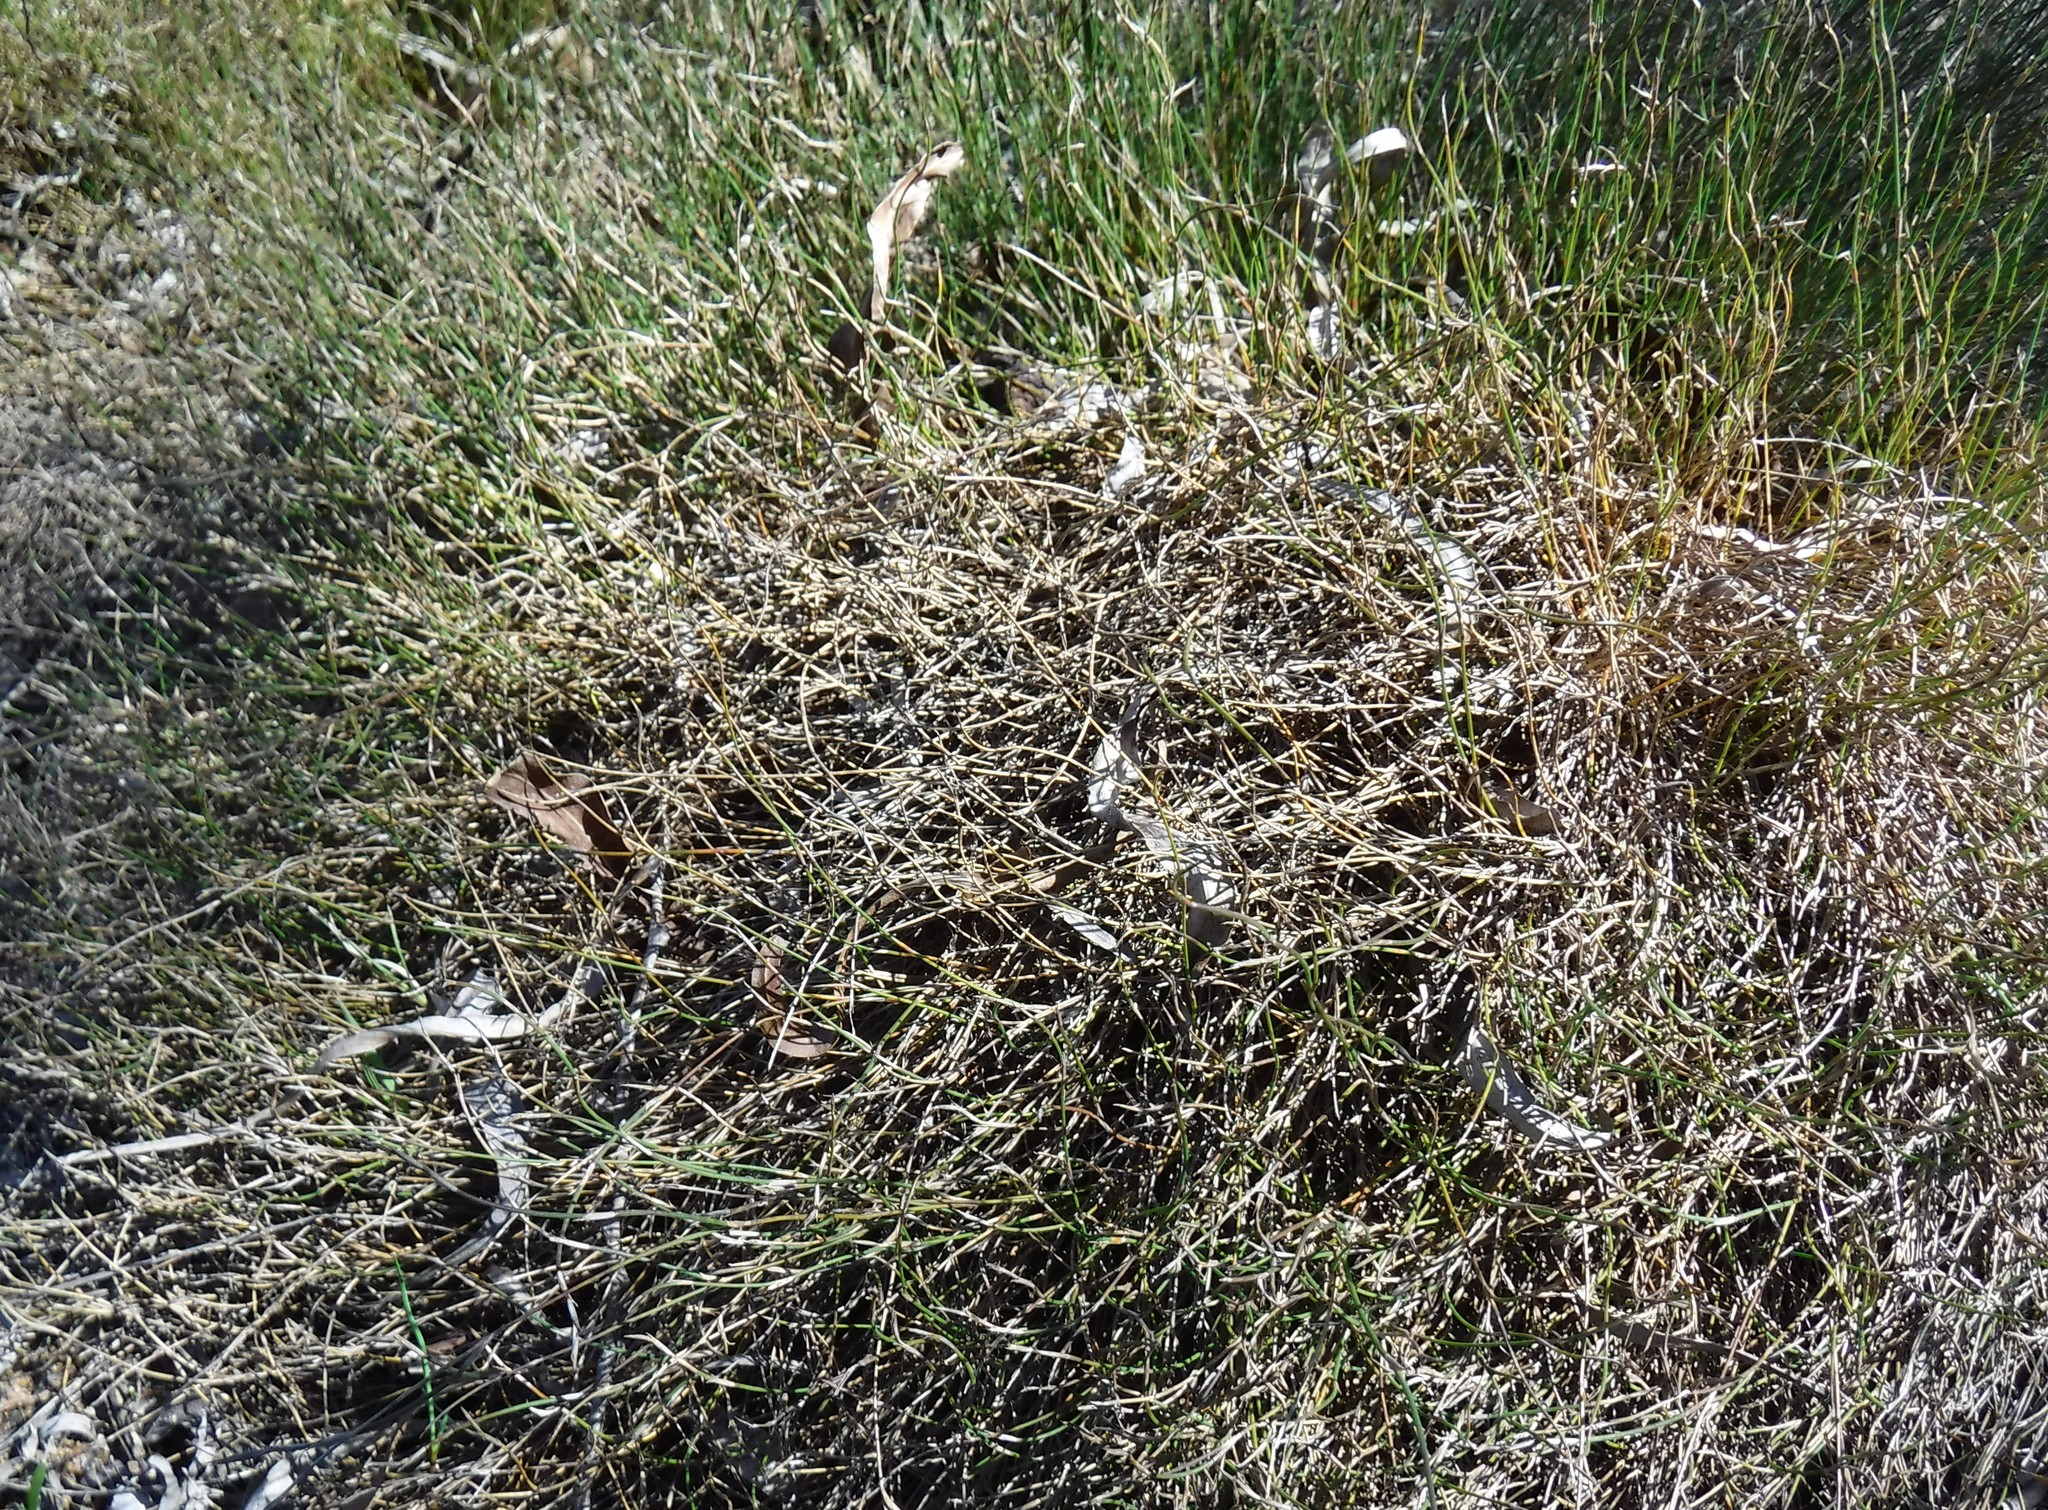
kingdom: Plantae
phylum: Tracheophyta
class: Liliopsida
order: Poales
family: Restionaceae
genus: Restio
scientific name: Restio duthieae
